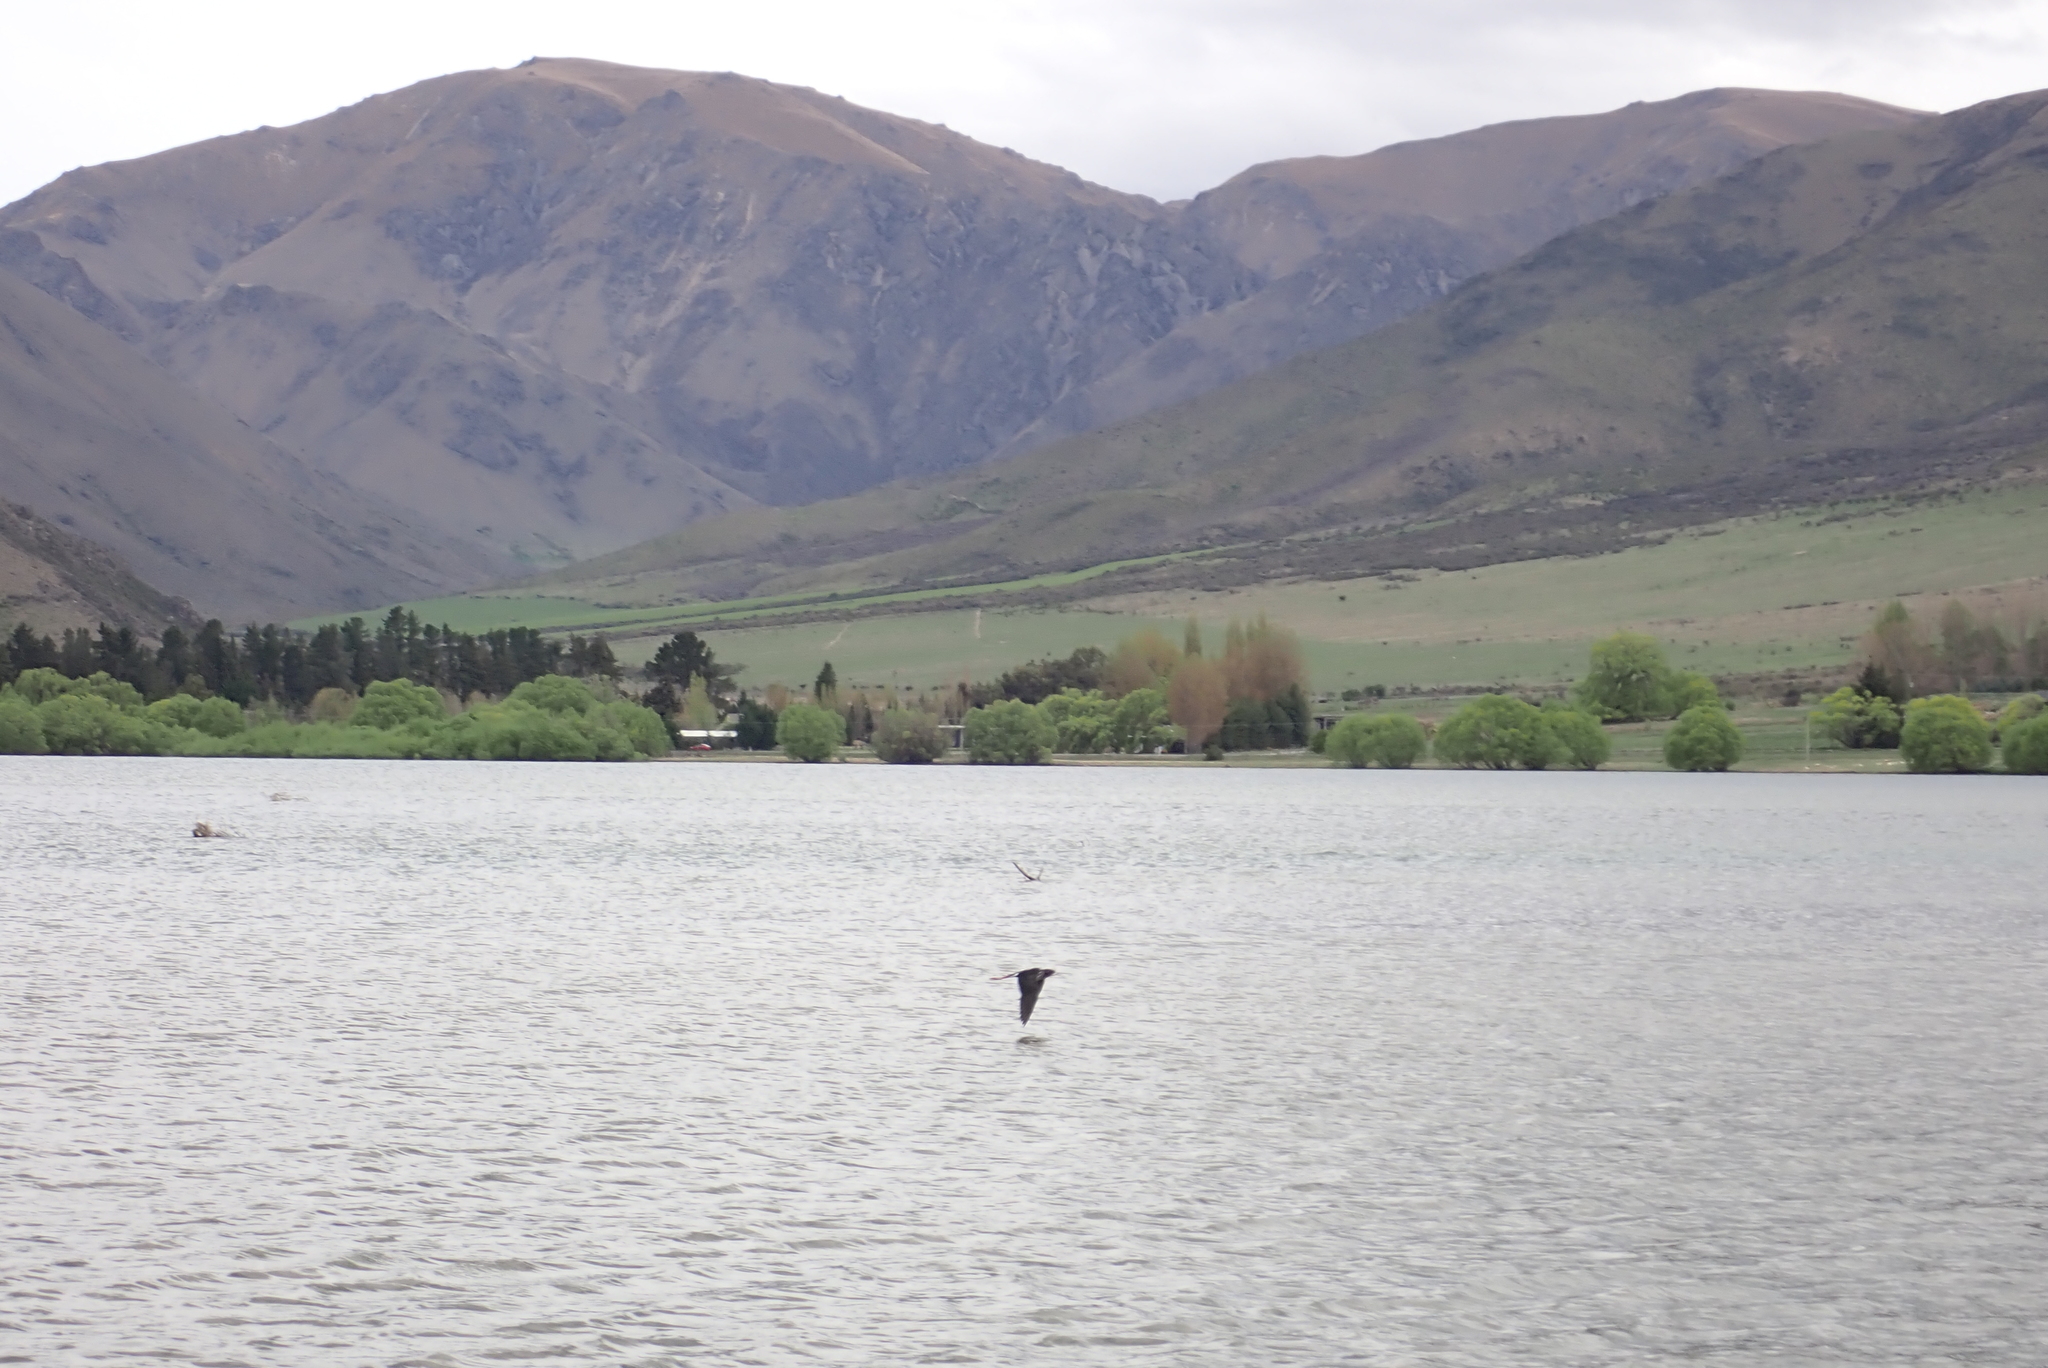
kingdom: Animalia
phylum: Chordata
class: Aves
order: Charadriiformes
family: Recurvirostridae
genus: Himantopus
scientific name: Himantopus
